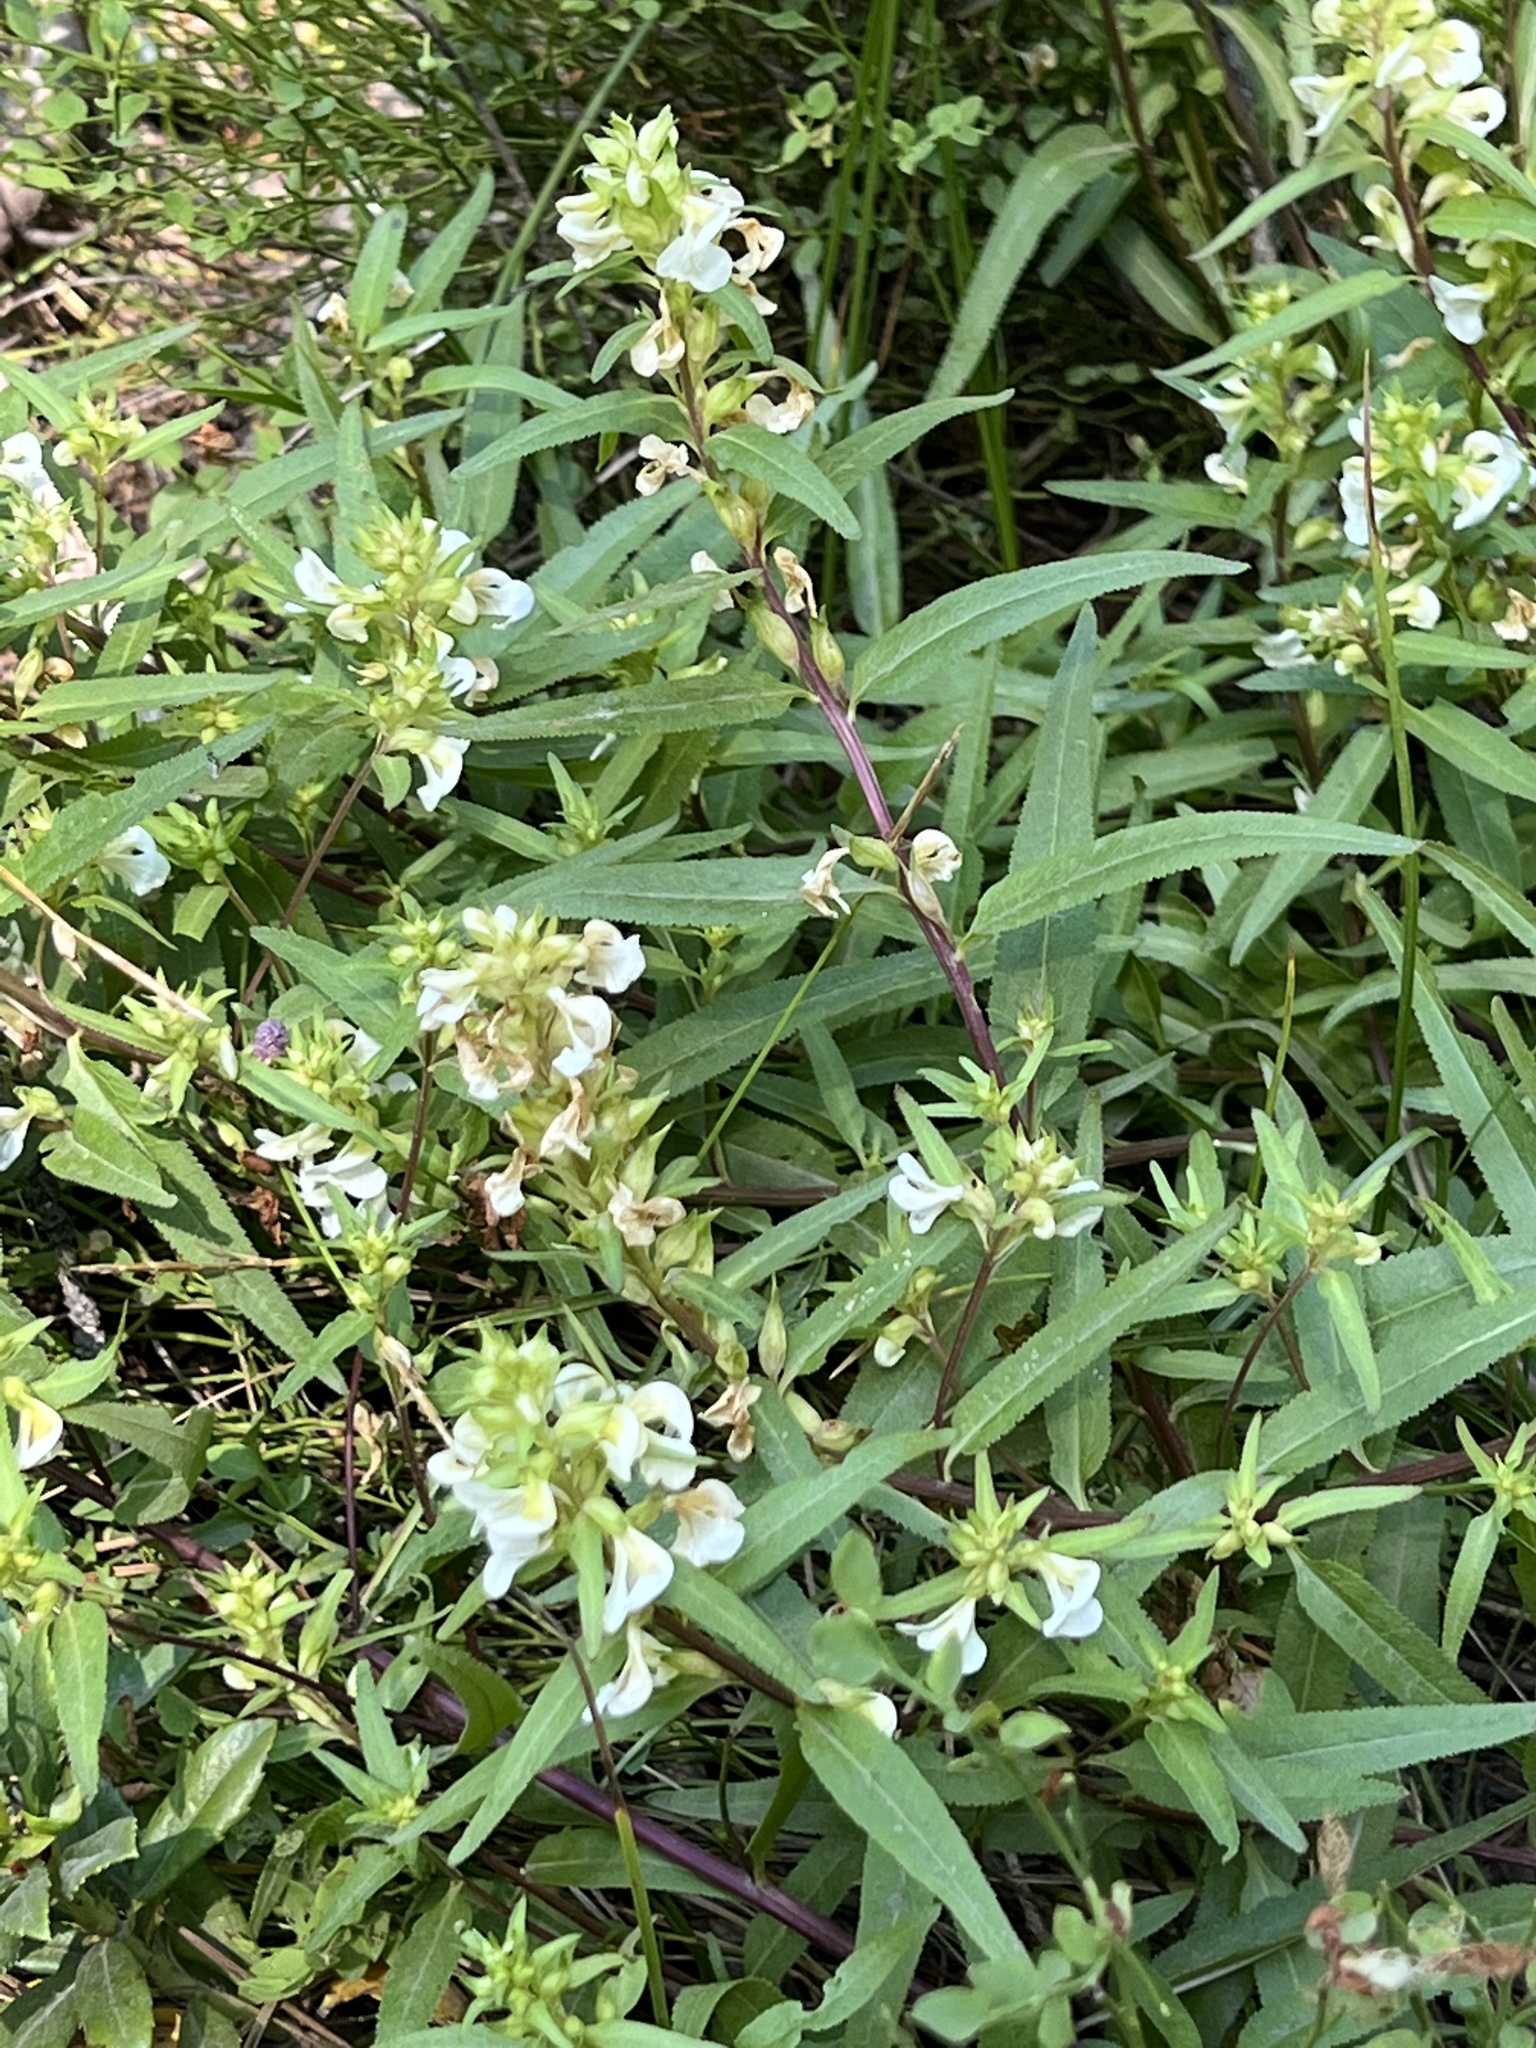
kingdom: Plantae
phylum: Tracheophyta
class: Magnoliopsida
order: Lamiales
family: Orobanchaceae
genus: Pedicularis
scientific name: Pedicularis racemosa
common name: Leafy lousewort
